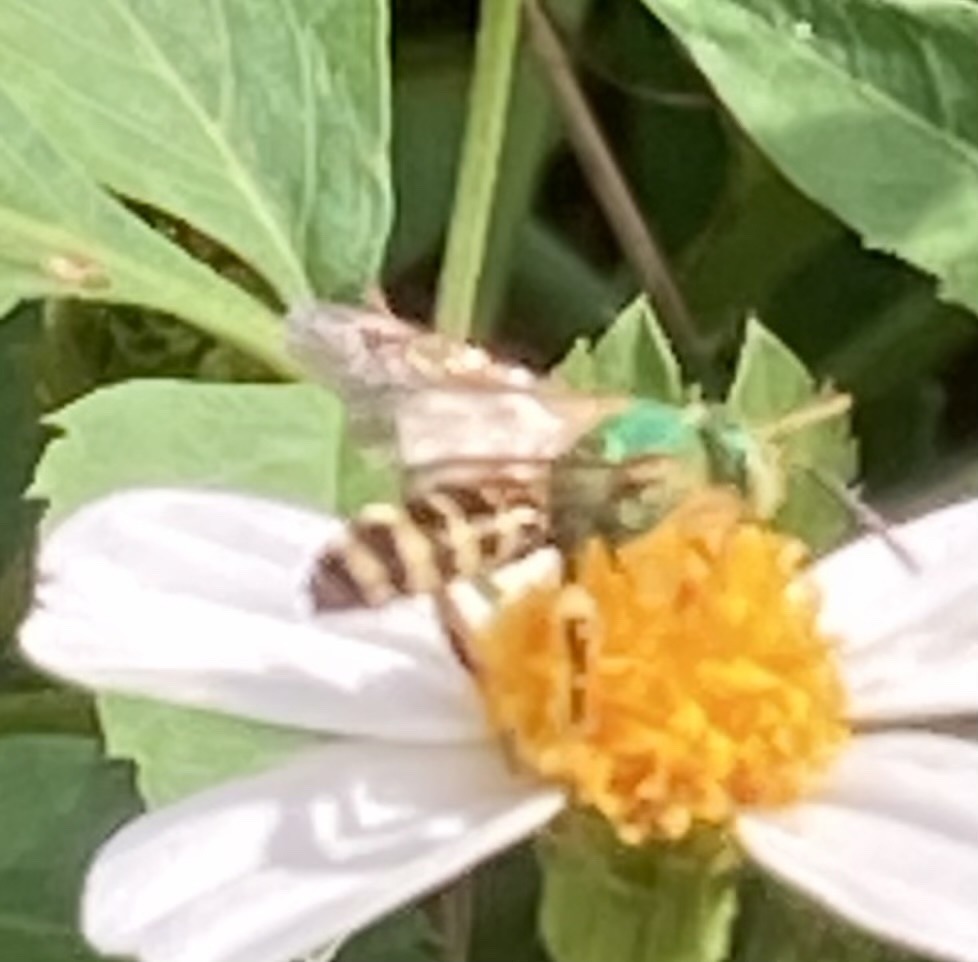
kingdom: Animalia
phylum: Arthropoda
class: Insecta
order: Hymenoptera
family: Halictidae
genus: Agapostemon
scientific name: Agapostemon splendens
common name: Brown-winged striped sweat bee
